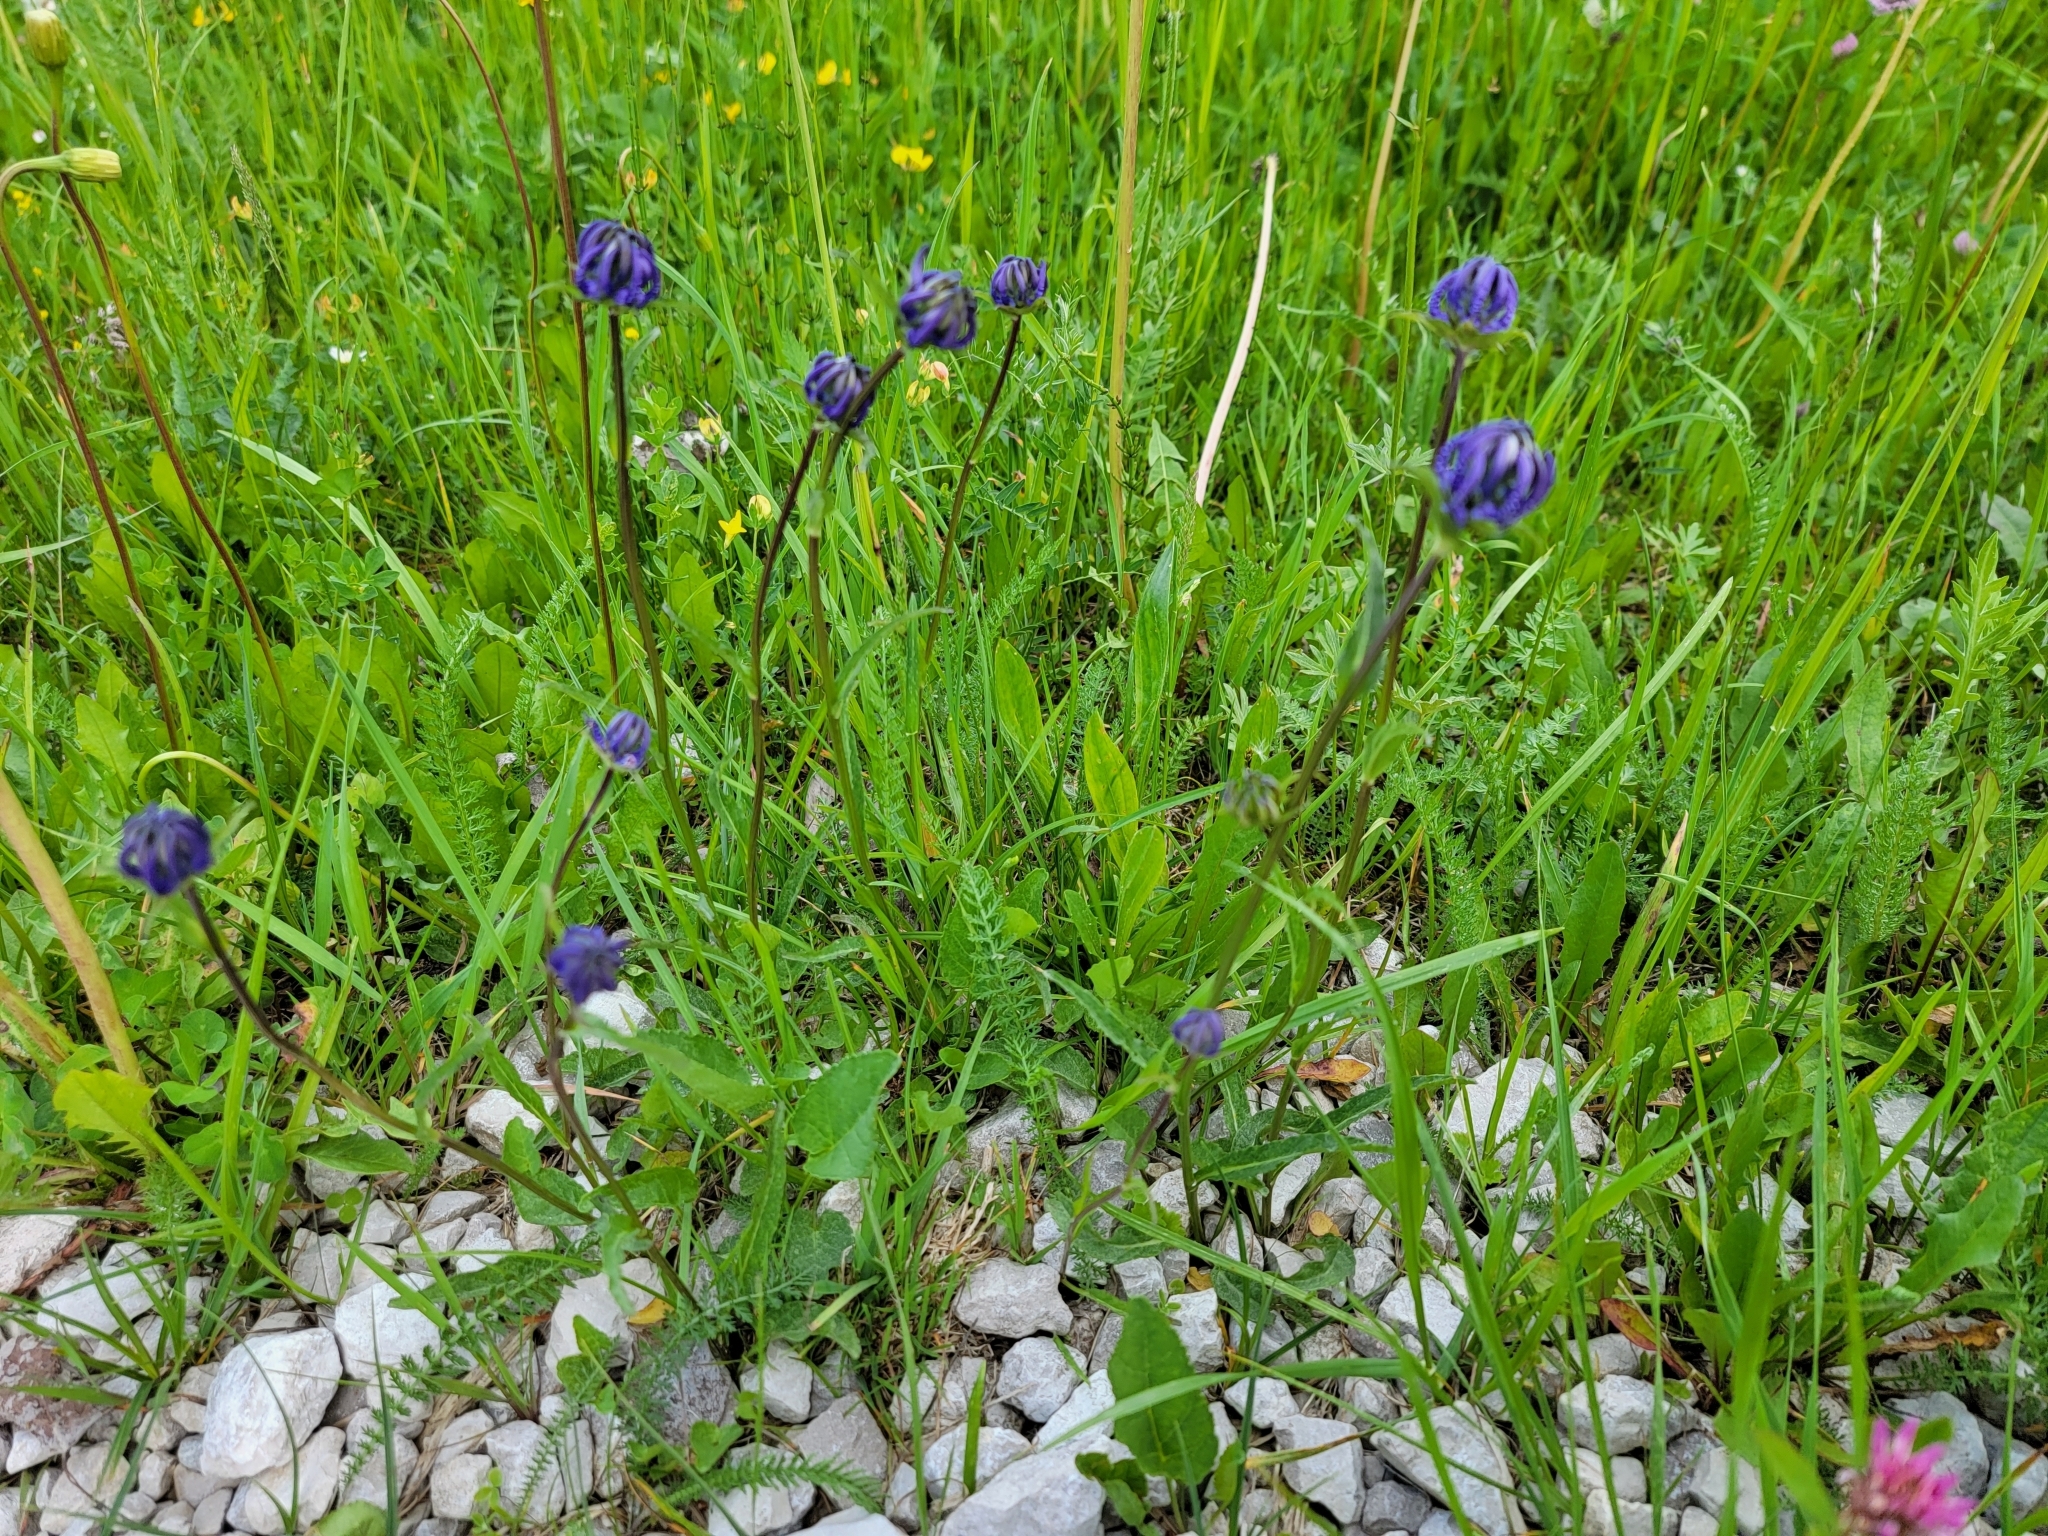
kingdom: Plantae
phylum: Tracheophyta
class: Magnoliopsida
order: Asterales
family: Campanulaceae
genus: Phyteuma
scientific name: Phyteuma orbiculare
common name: Round-headed rampion
